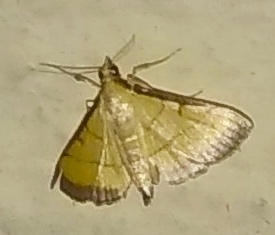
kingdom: Animalia
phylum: Arthropoda
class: Insecta
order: Lepidoptera
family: Crambidae
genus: Cnaphalocrocis
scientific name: Cnaphalocrocis medinalis
